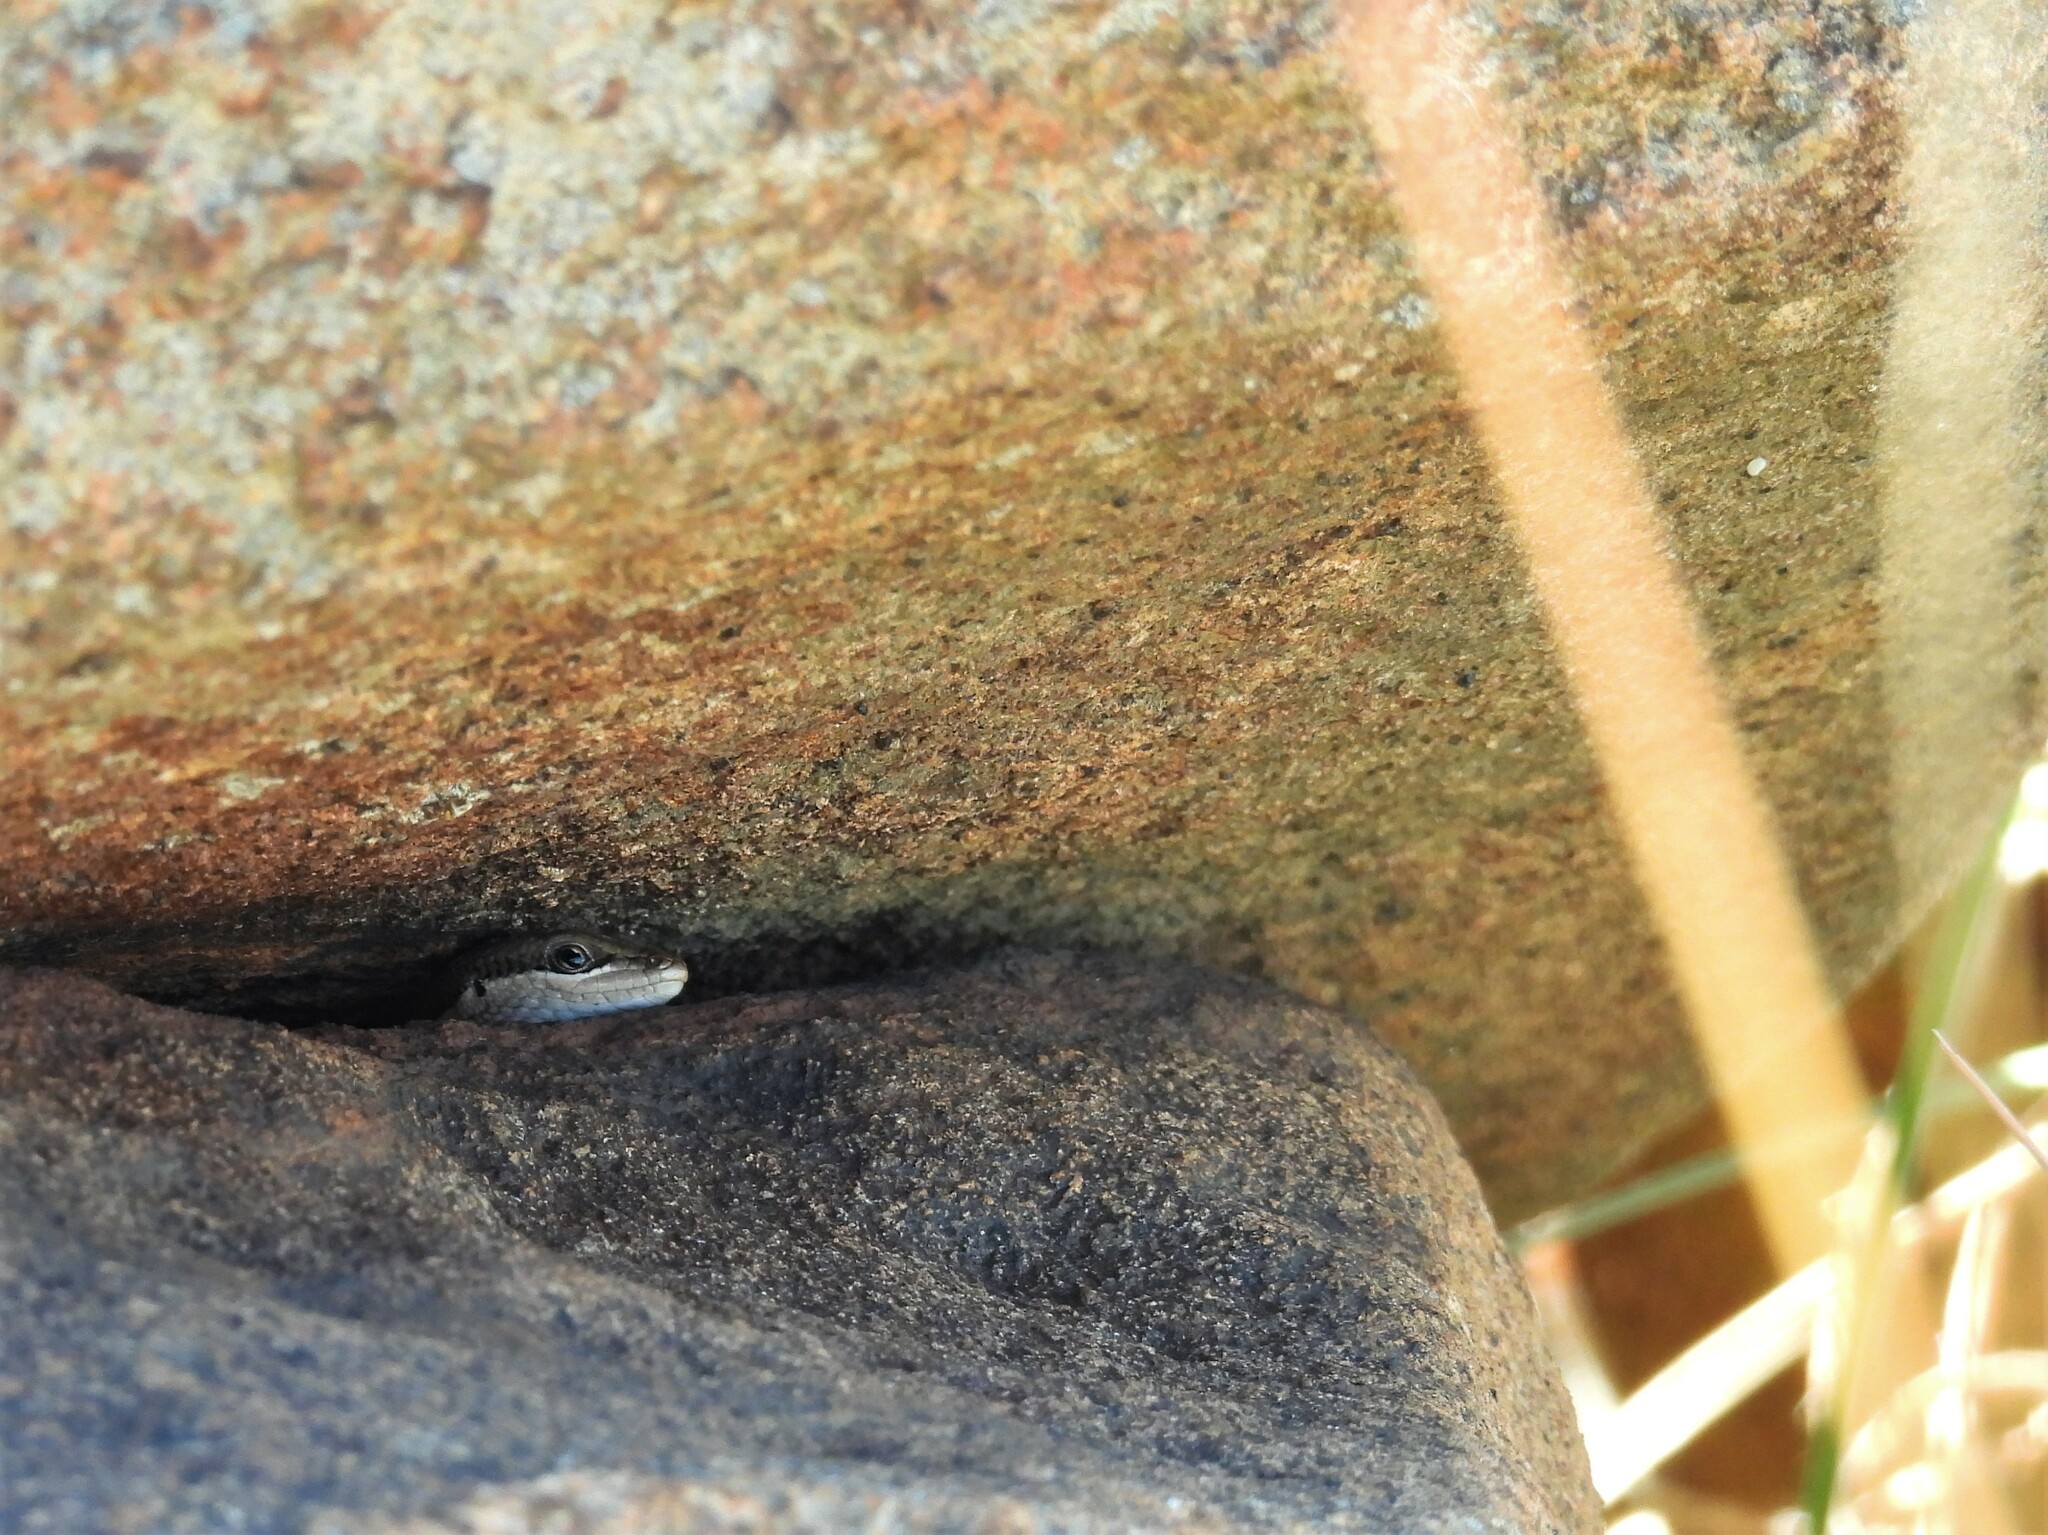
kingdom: Animalia
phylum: Chordata
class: Squamata
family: Scincidae
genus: Trachylepis
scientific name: Trachylepis varia
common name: Eastern variable skink
